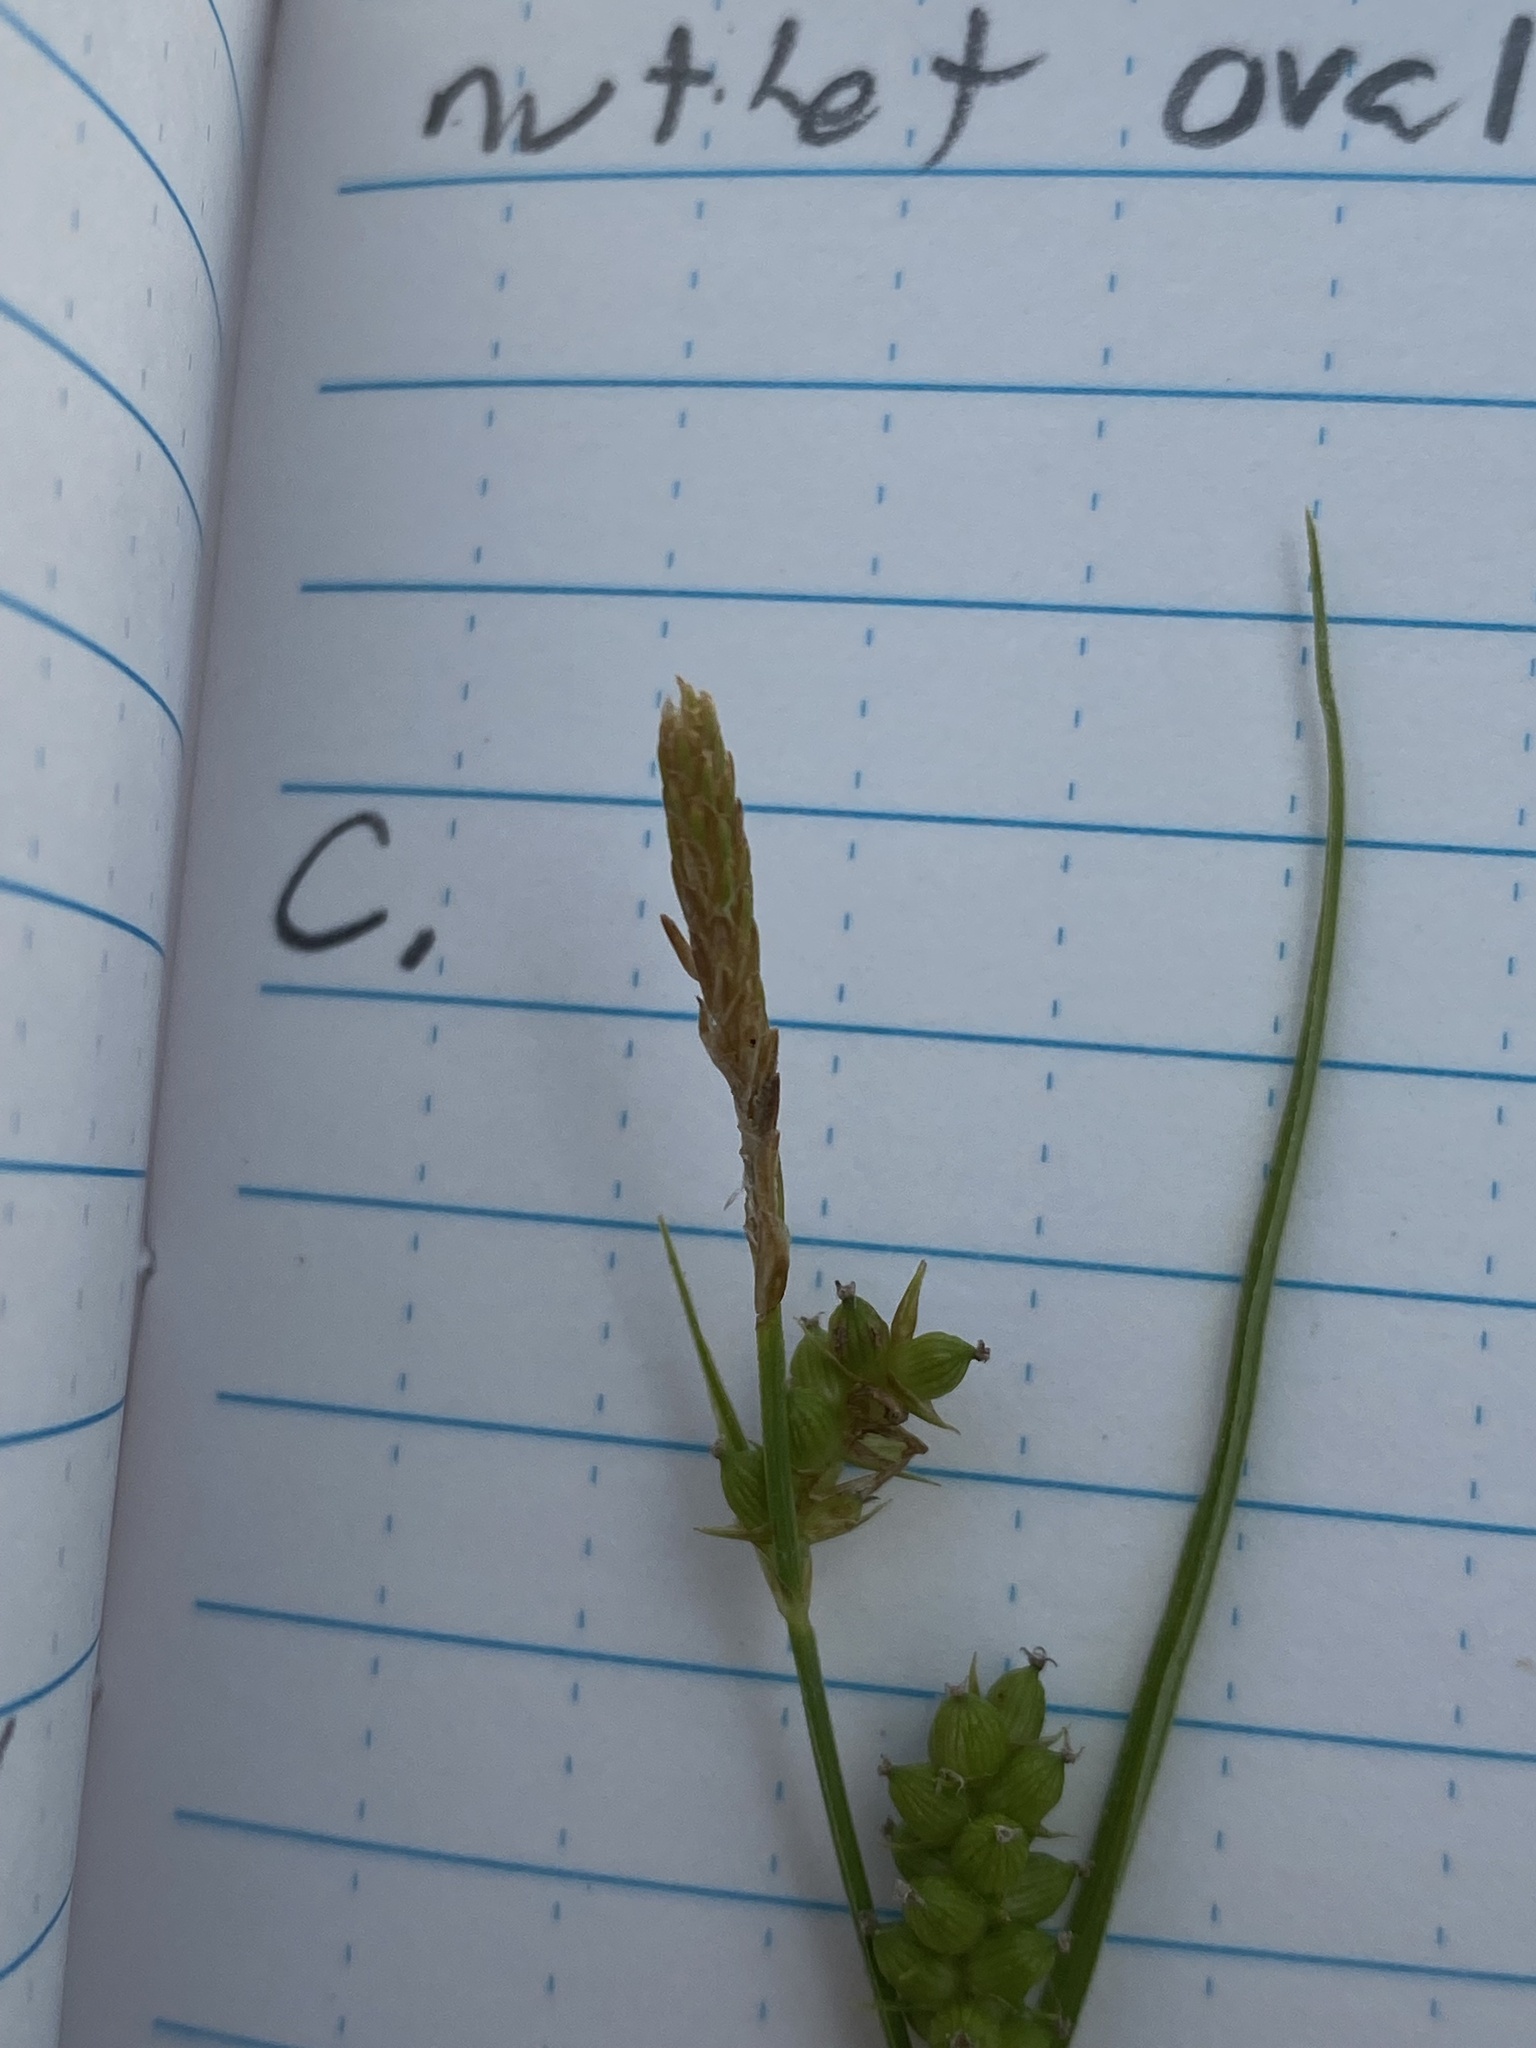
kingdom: Plantae
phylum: Tracheophyta
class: Liliopsida
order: Poales
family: Cyperaceae
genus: Carex
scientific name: Carex conoidea
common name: Cone shaped sedge
